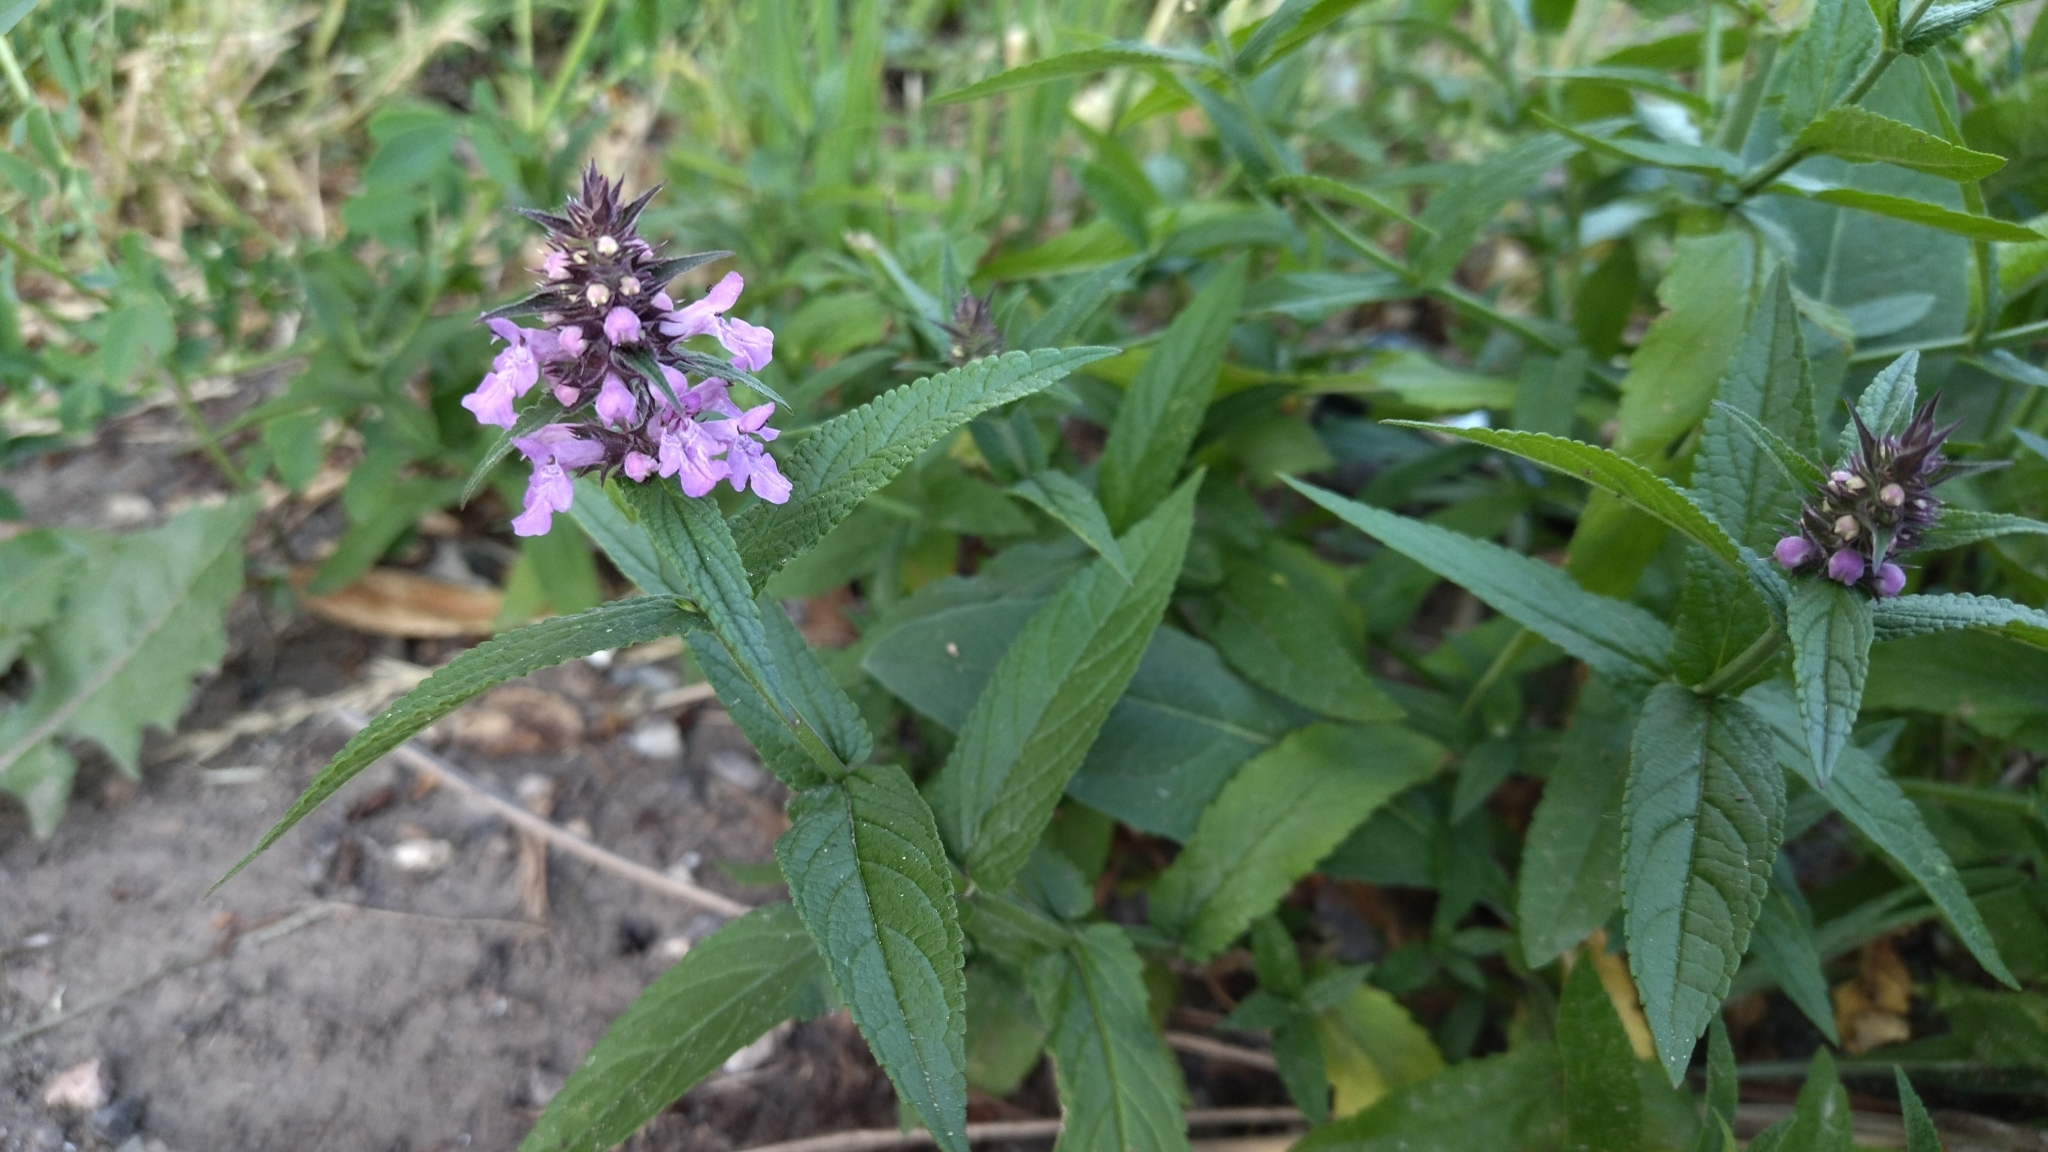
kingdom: Plantae
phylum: Tracheophyta
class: Magnoliopsida
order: Lamiales
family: Lamiaceae
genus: Stachys
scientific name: Stachys palustris
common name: Marsh woundwort
